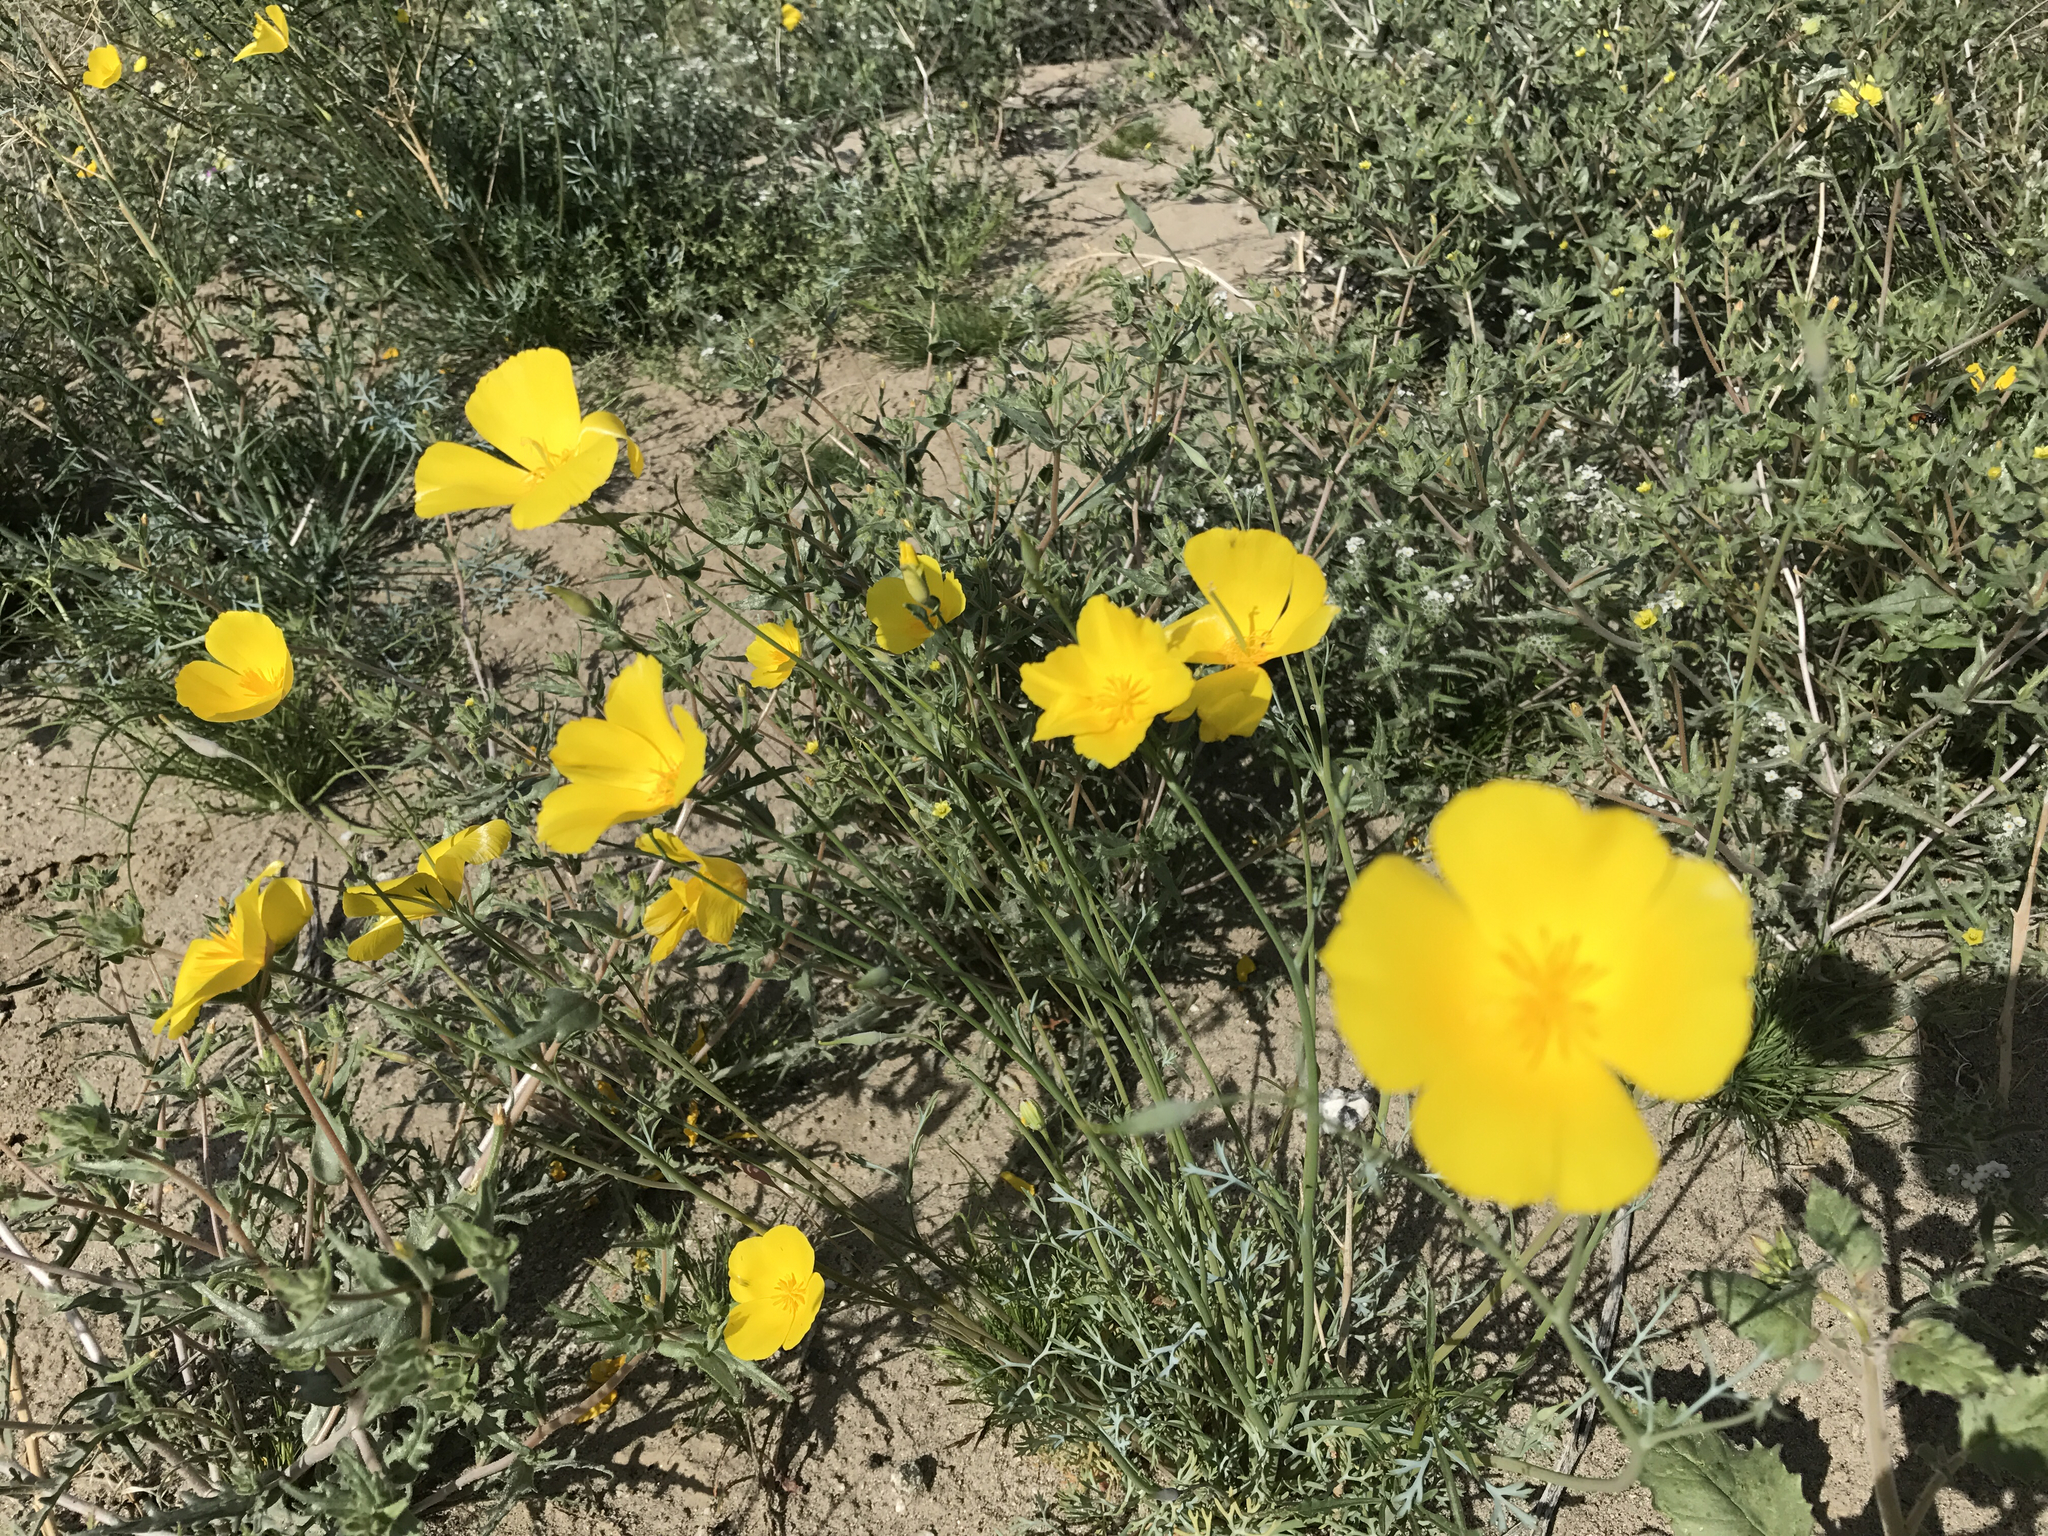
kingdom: Plantae
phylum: Tracheophyta
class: Magnoliopsida
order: Ranunculales
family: Papaveraceae
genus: Eschscholzia
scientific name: Eschscholzia parishii
